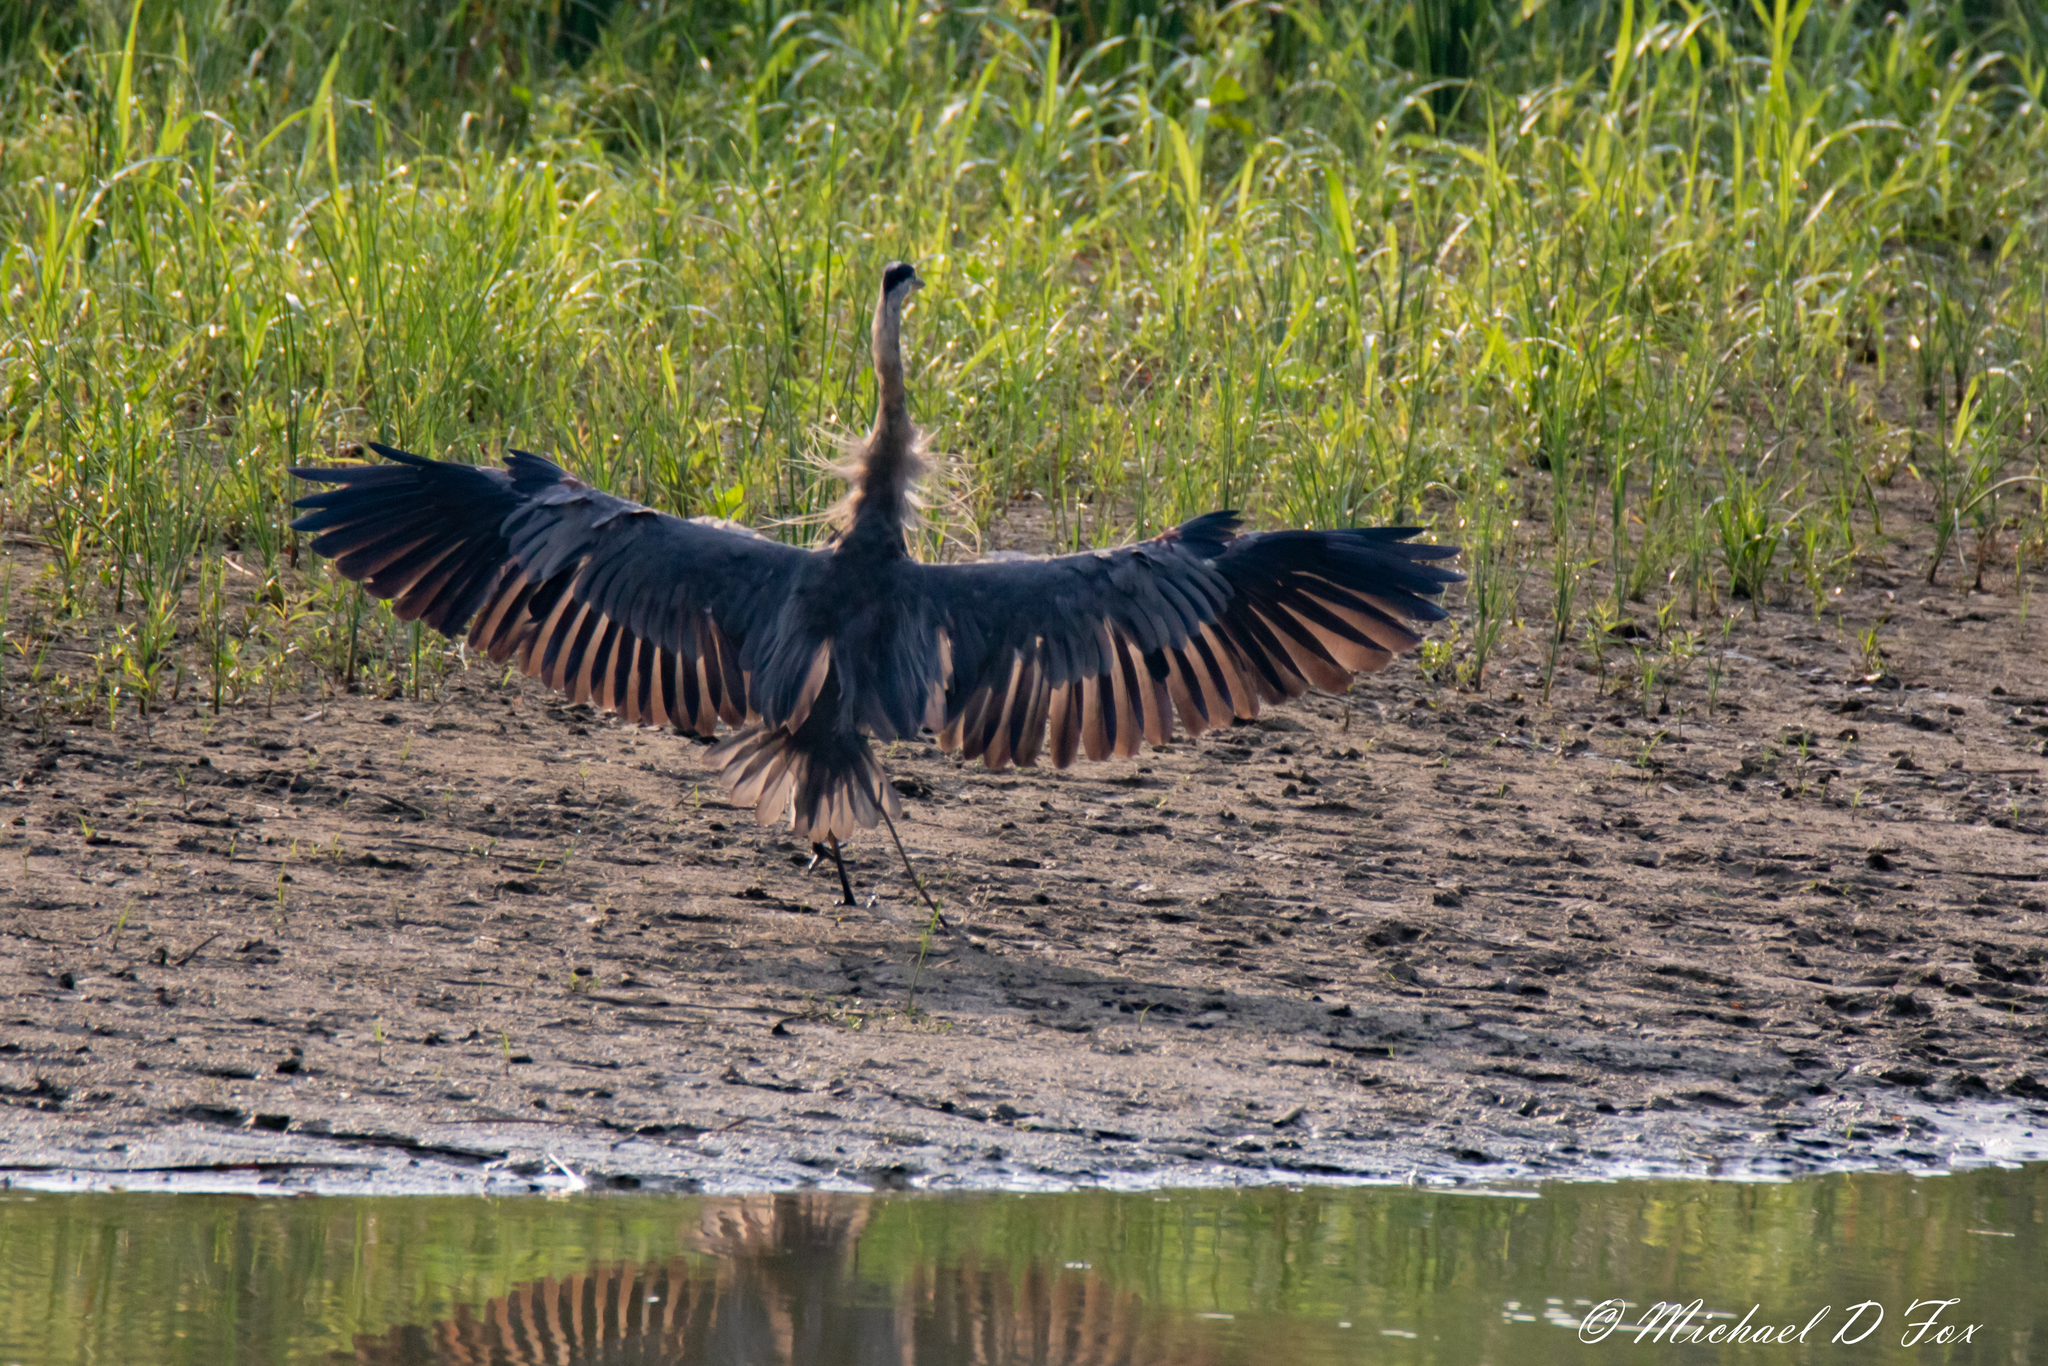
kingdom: Animalia
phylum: Chordata
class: Aves
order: Pelecaniformes
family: Ardeidae
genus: Ardea
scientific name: Ardea herodias
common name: Great blue heron
